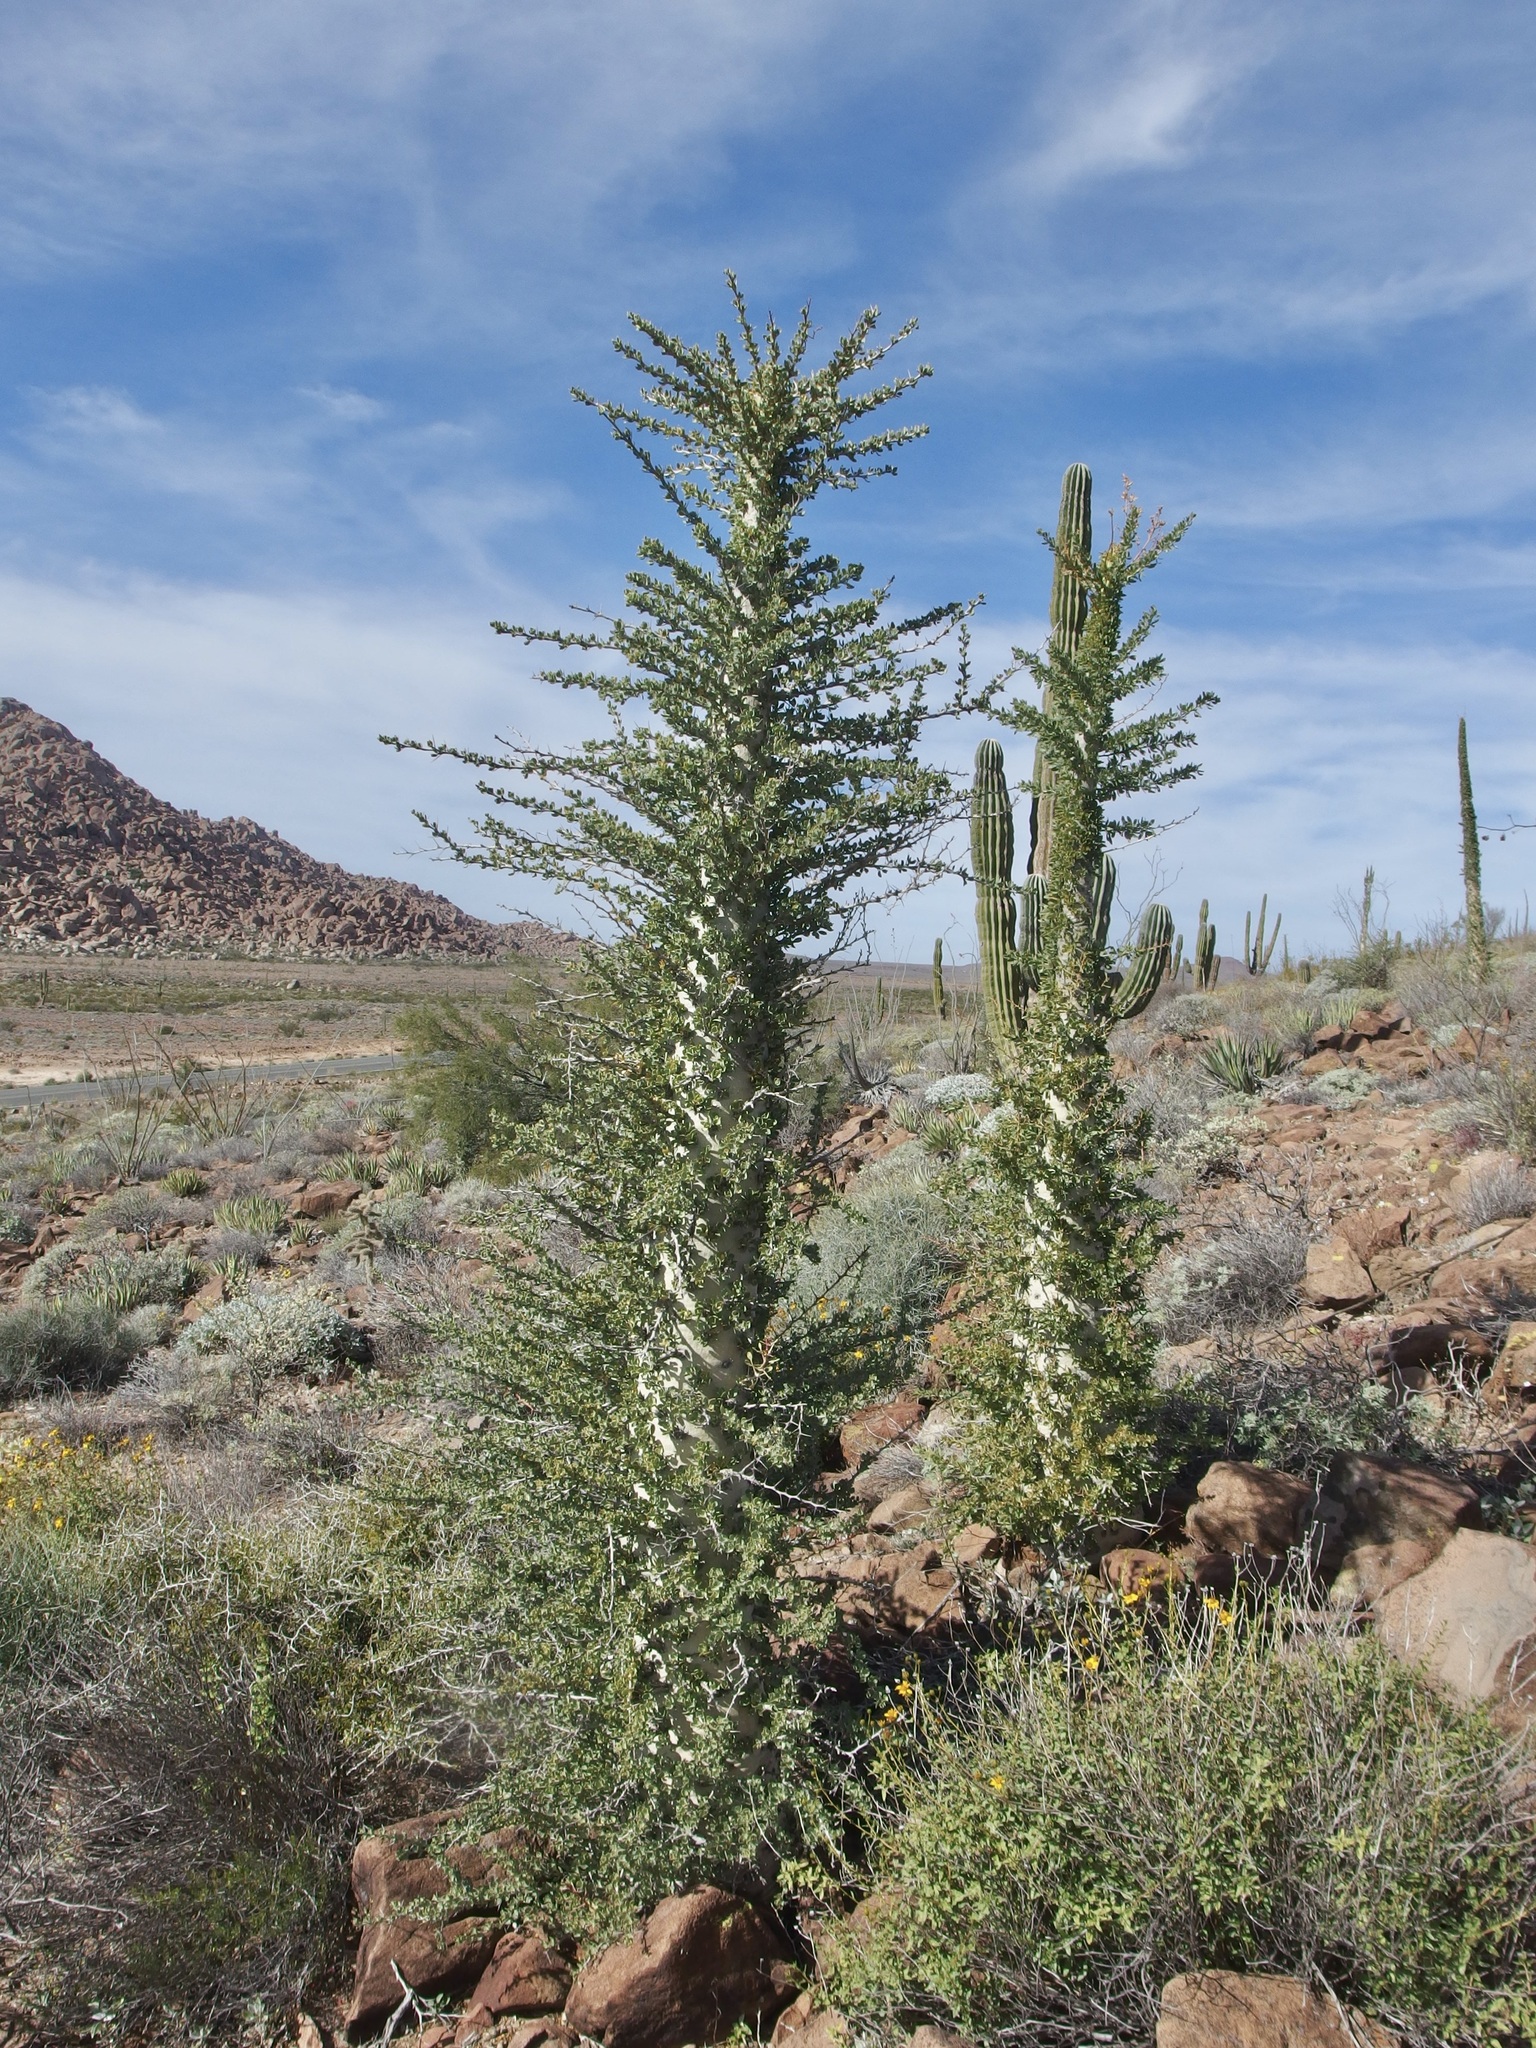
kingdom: Plantae
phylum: Tracheophyta
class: Magnoliopsida
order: Ericales
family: Fouquieriaceae
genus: Fouquieria
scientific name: Fouquieria columnaris
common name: Boojumtree
